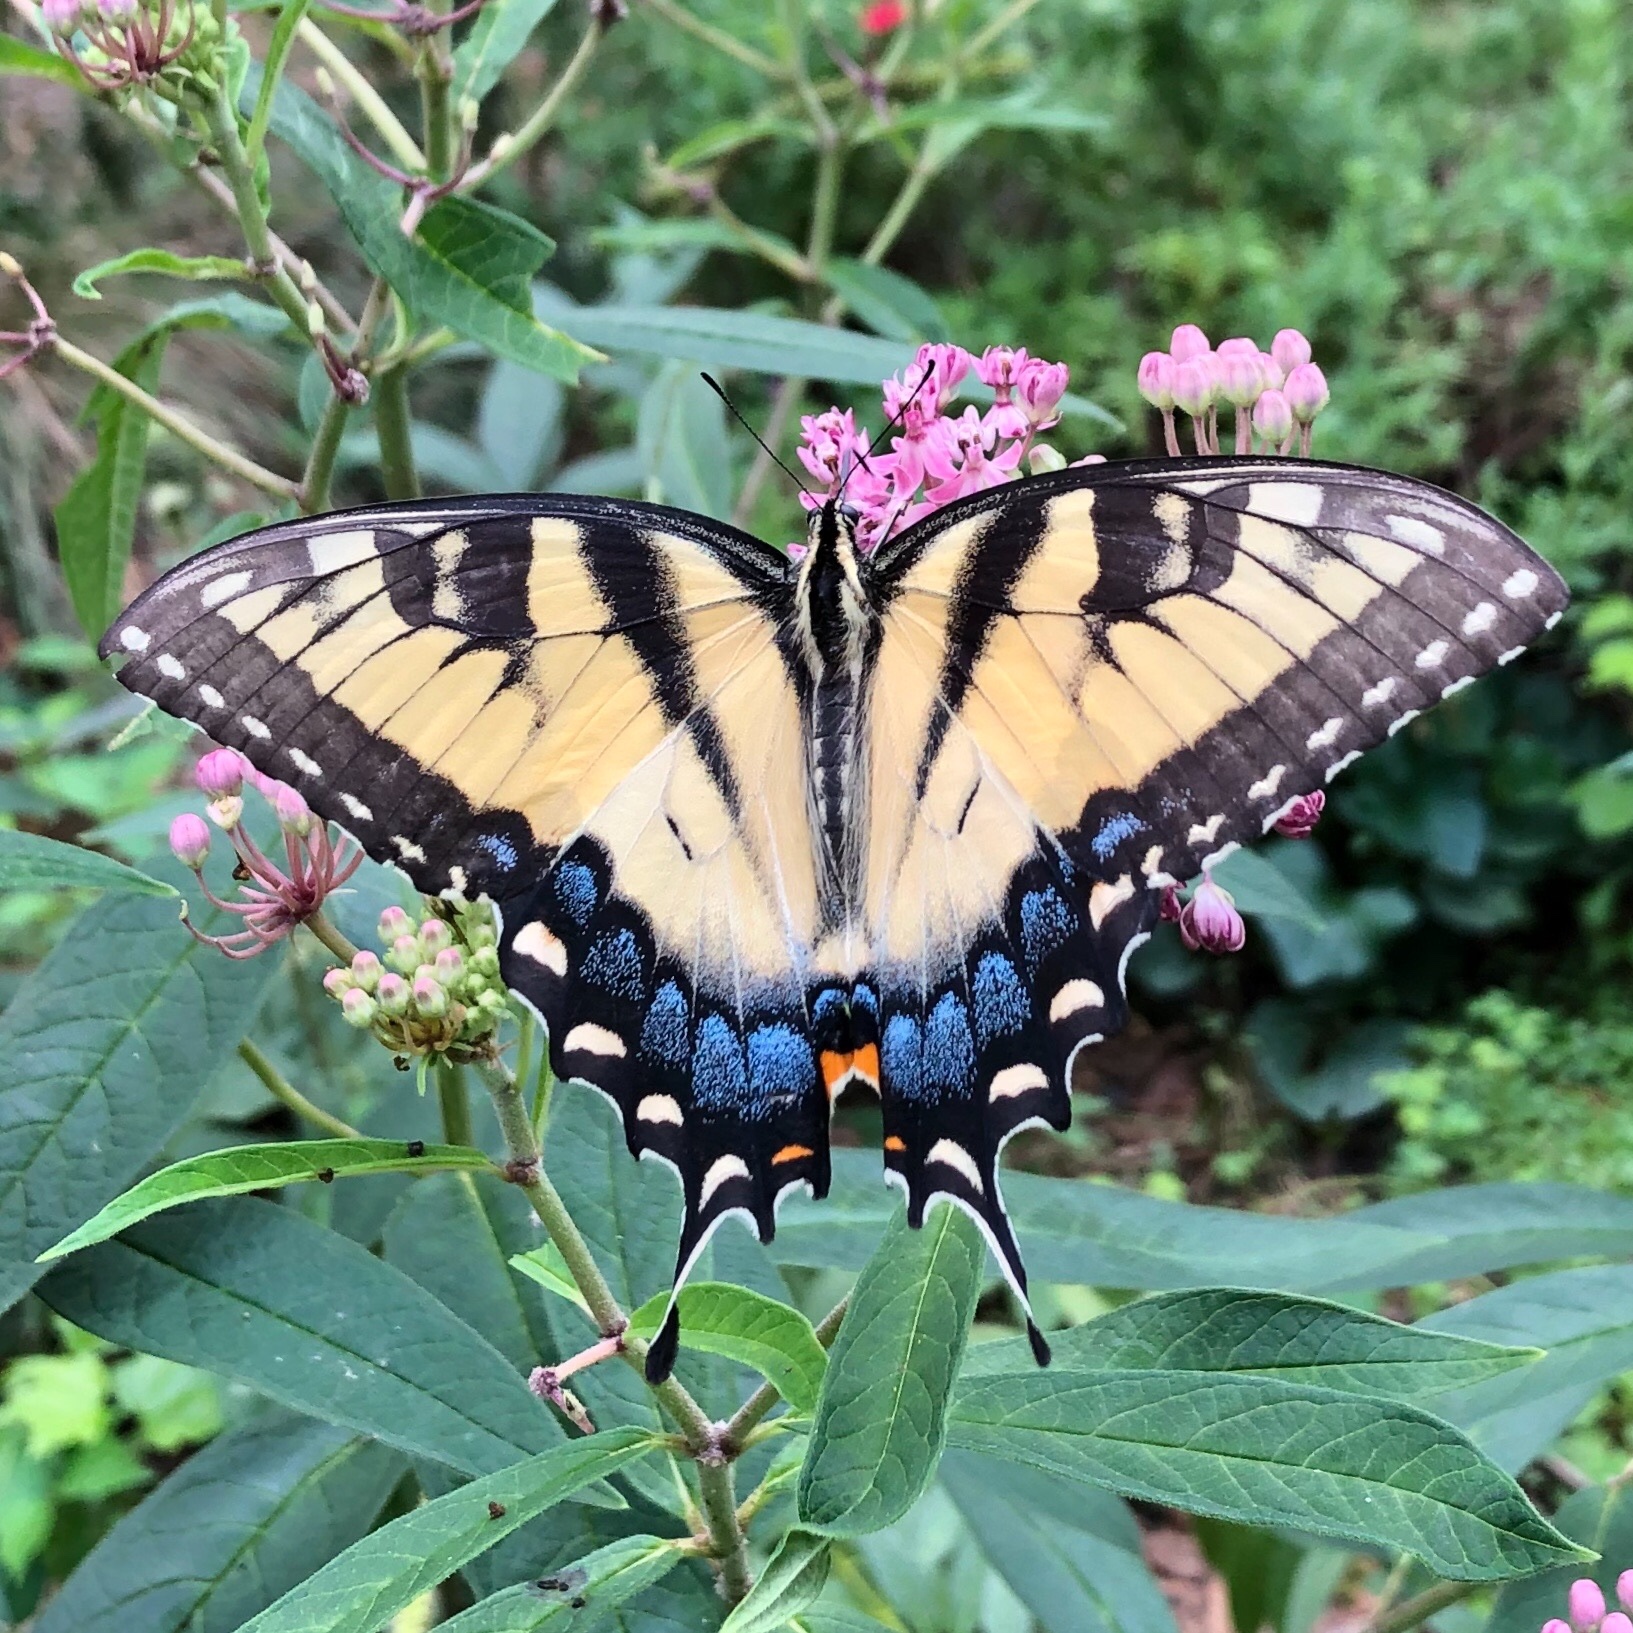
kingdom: Animalia
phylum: Arthropoda
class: Insecta
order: Lepidoptera
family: Papilionidae
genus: Papilio
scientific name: Papilio glaucus
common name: Tiger swallowtail
